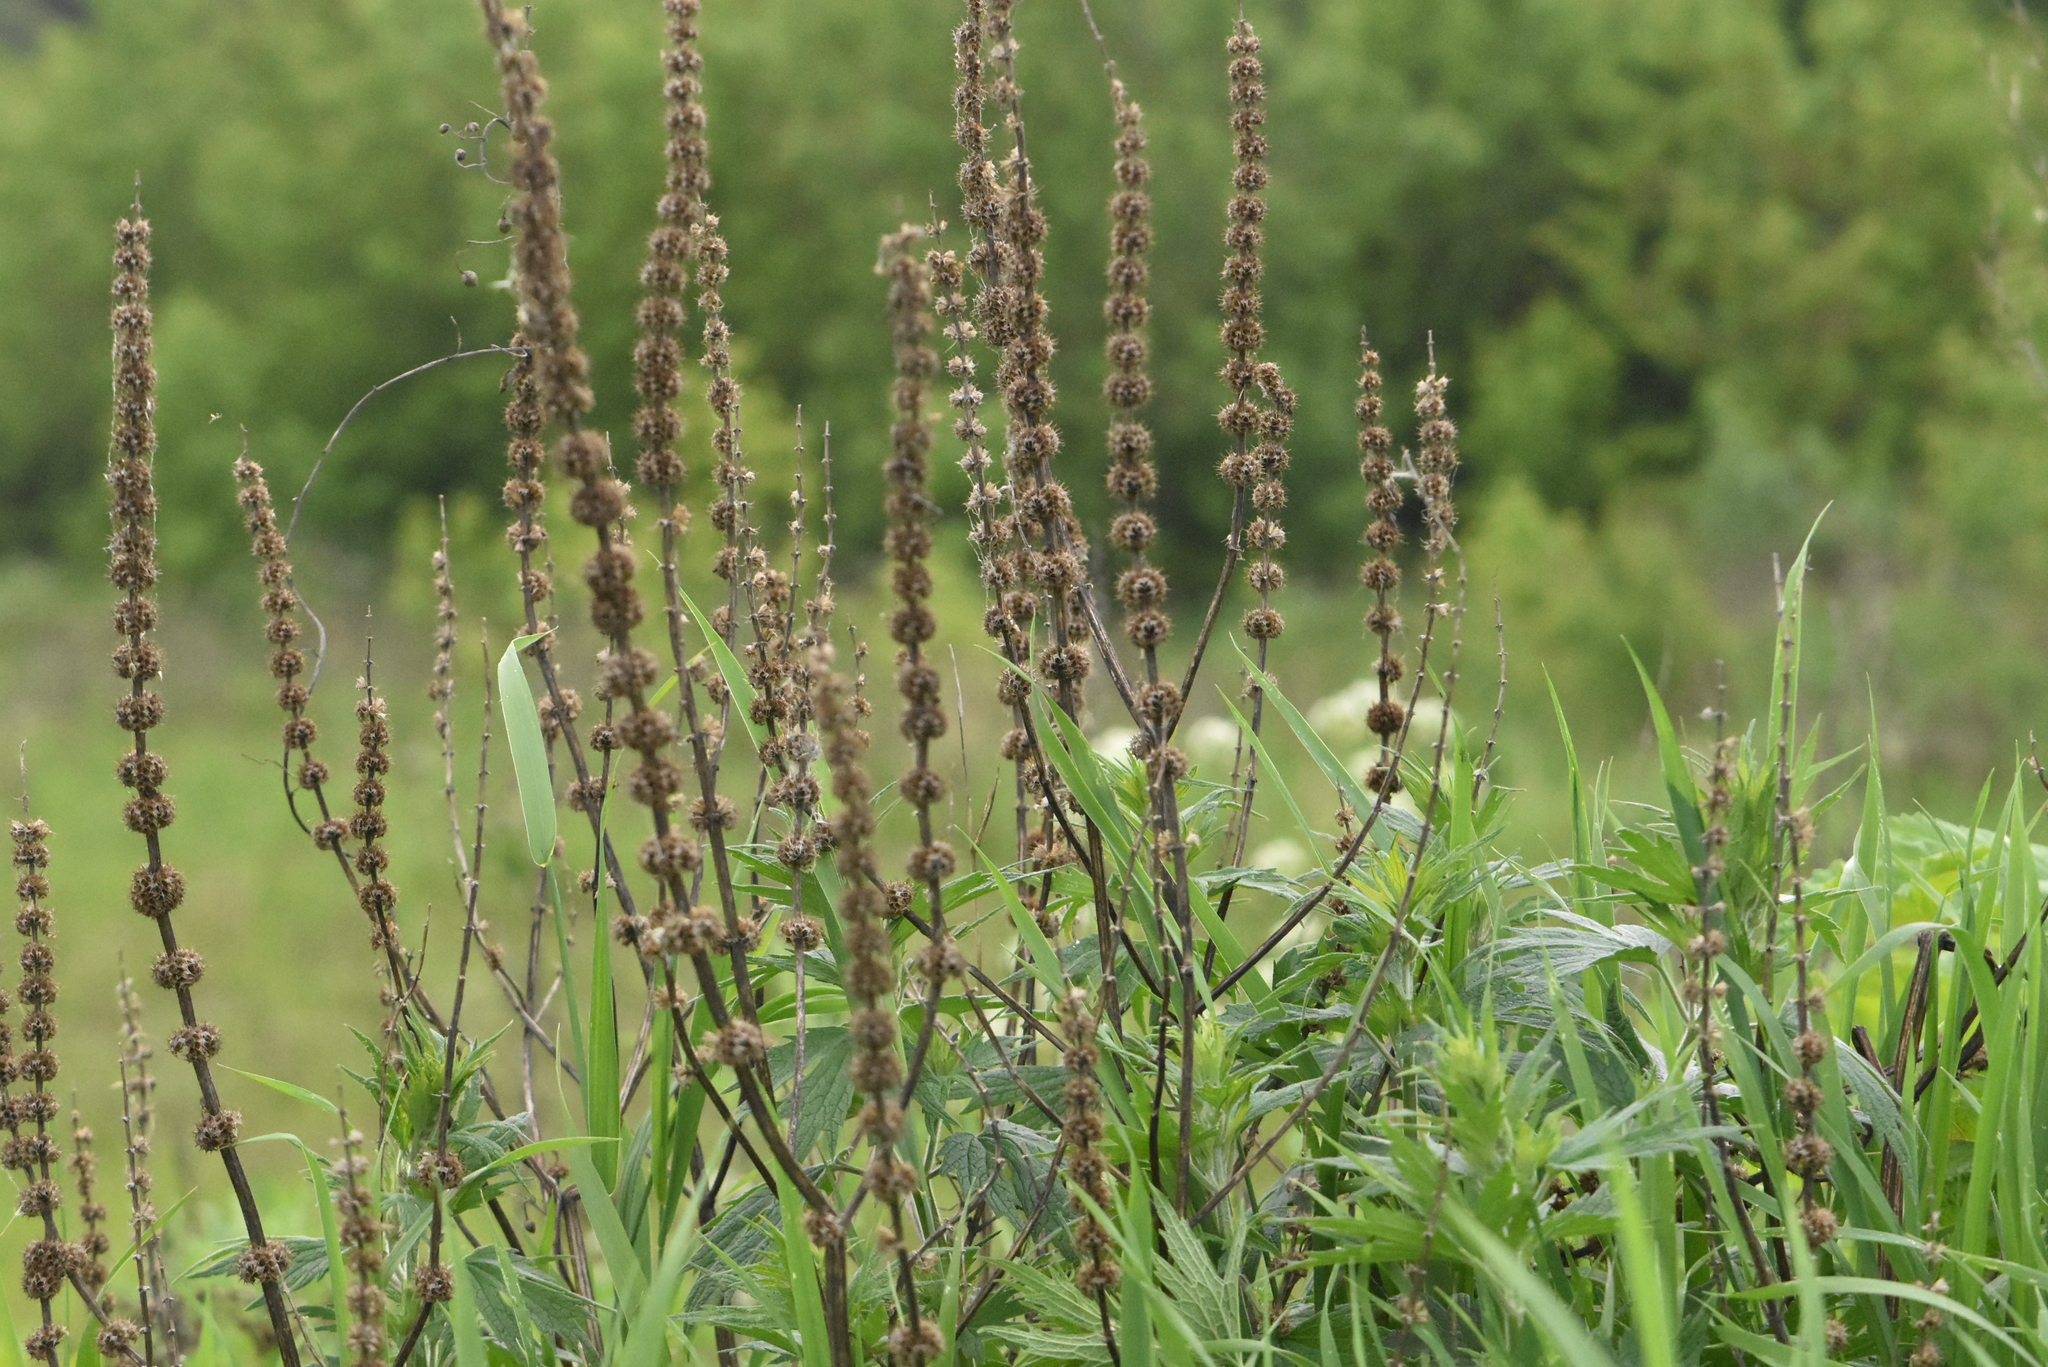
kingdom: Plantae
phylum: Tracheophyta
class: Magnoliopsida
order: Lamiales
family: Lamiaceae
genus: Leonurus
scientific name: Leonurus quinquelobatus
